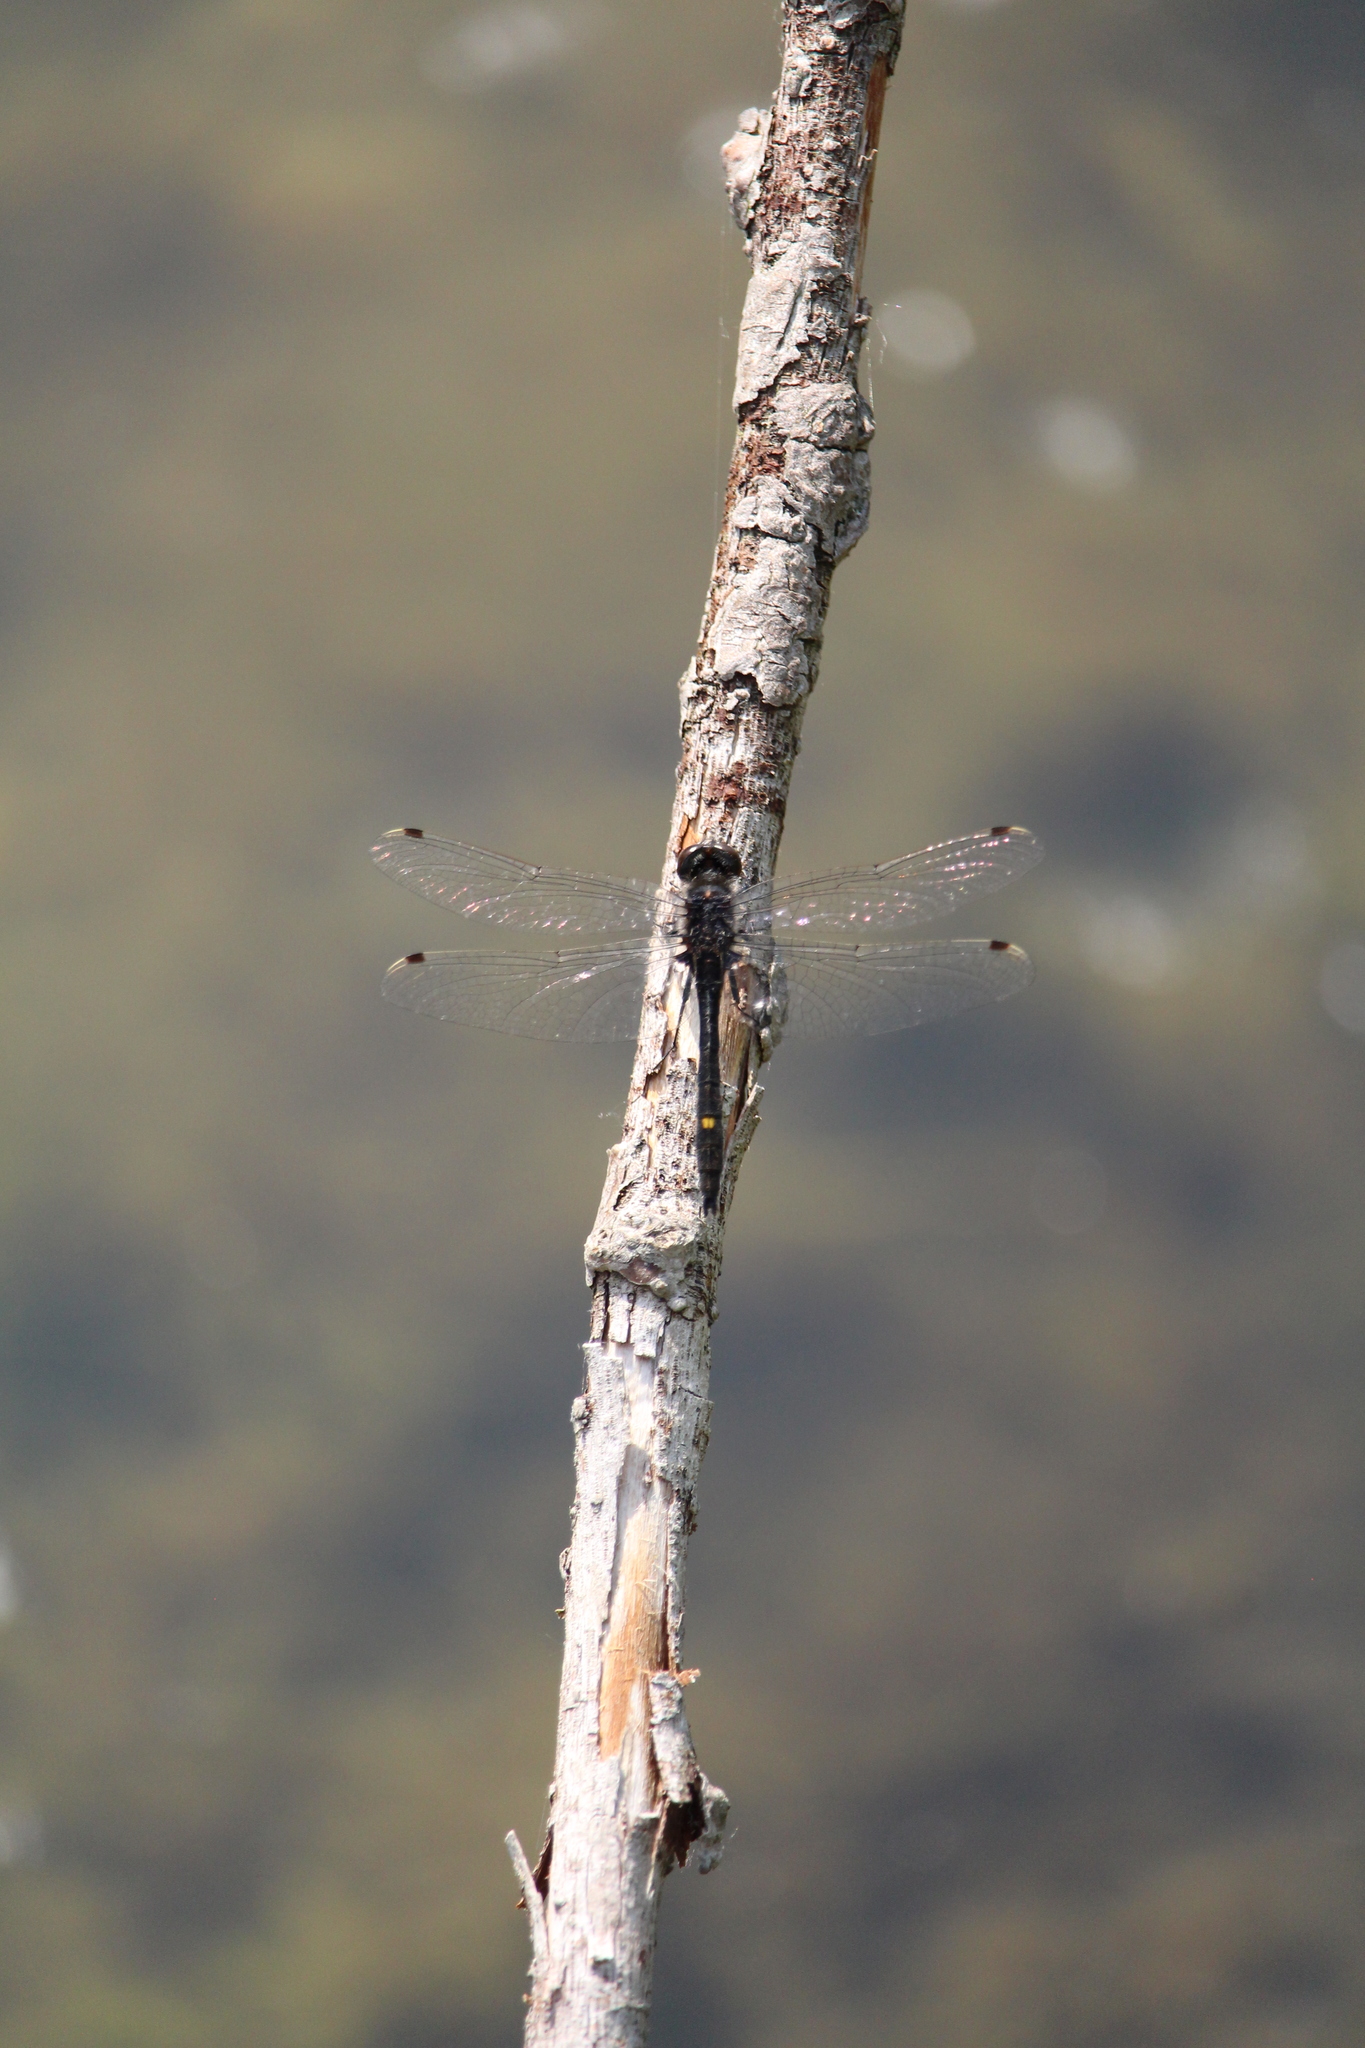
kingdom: Animalia
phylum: Arthropoda
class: Insecta
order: Odonata
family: Libellulidae
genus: Leucorrhinia
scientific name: Leucorrhinia intacta
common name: Dot-tailed whiteface
